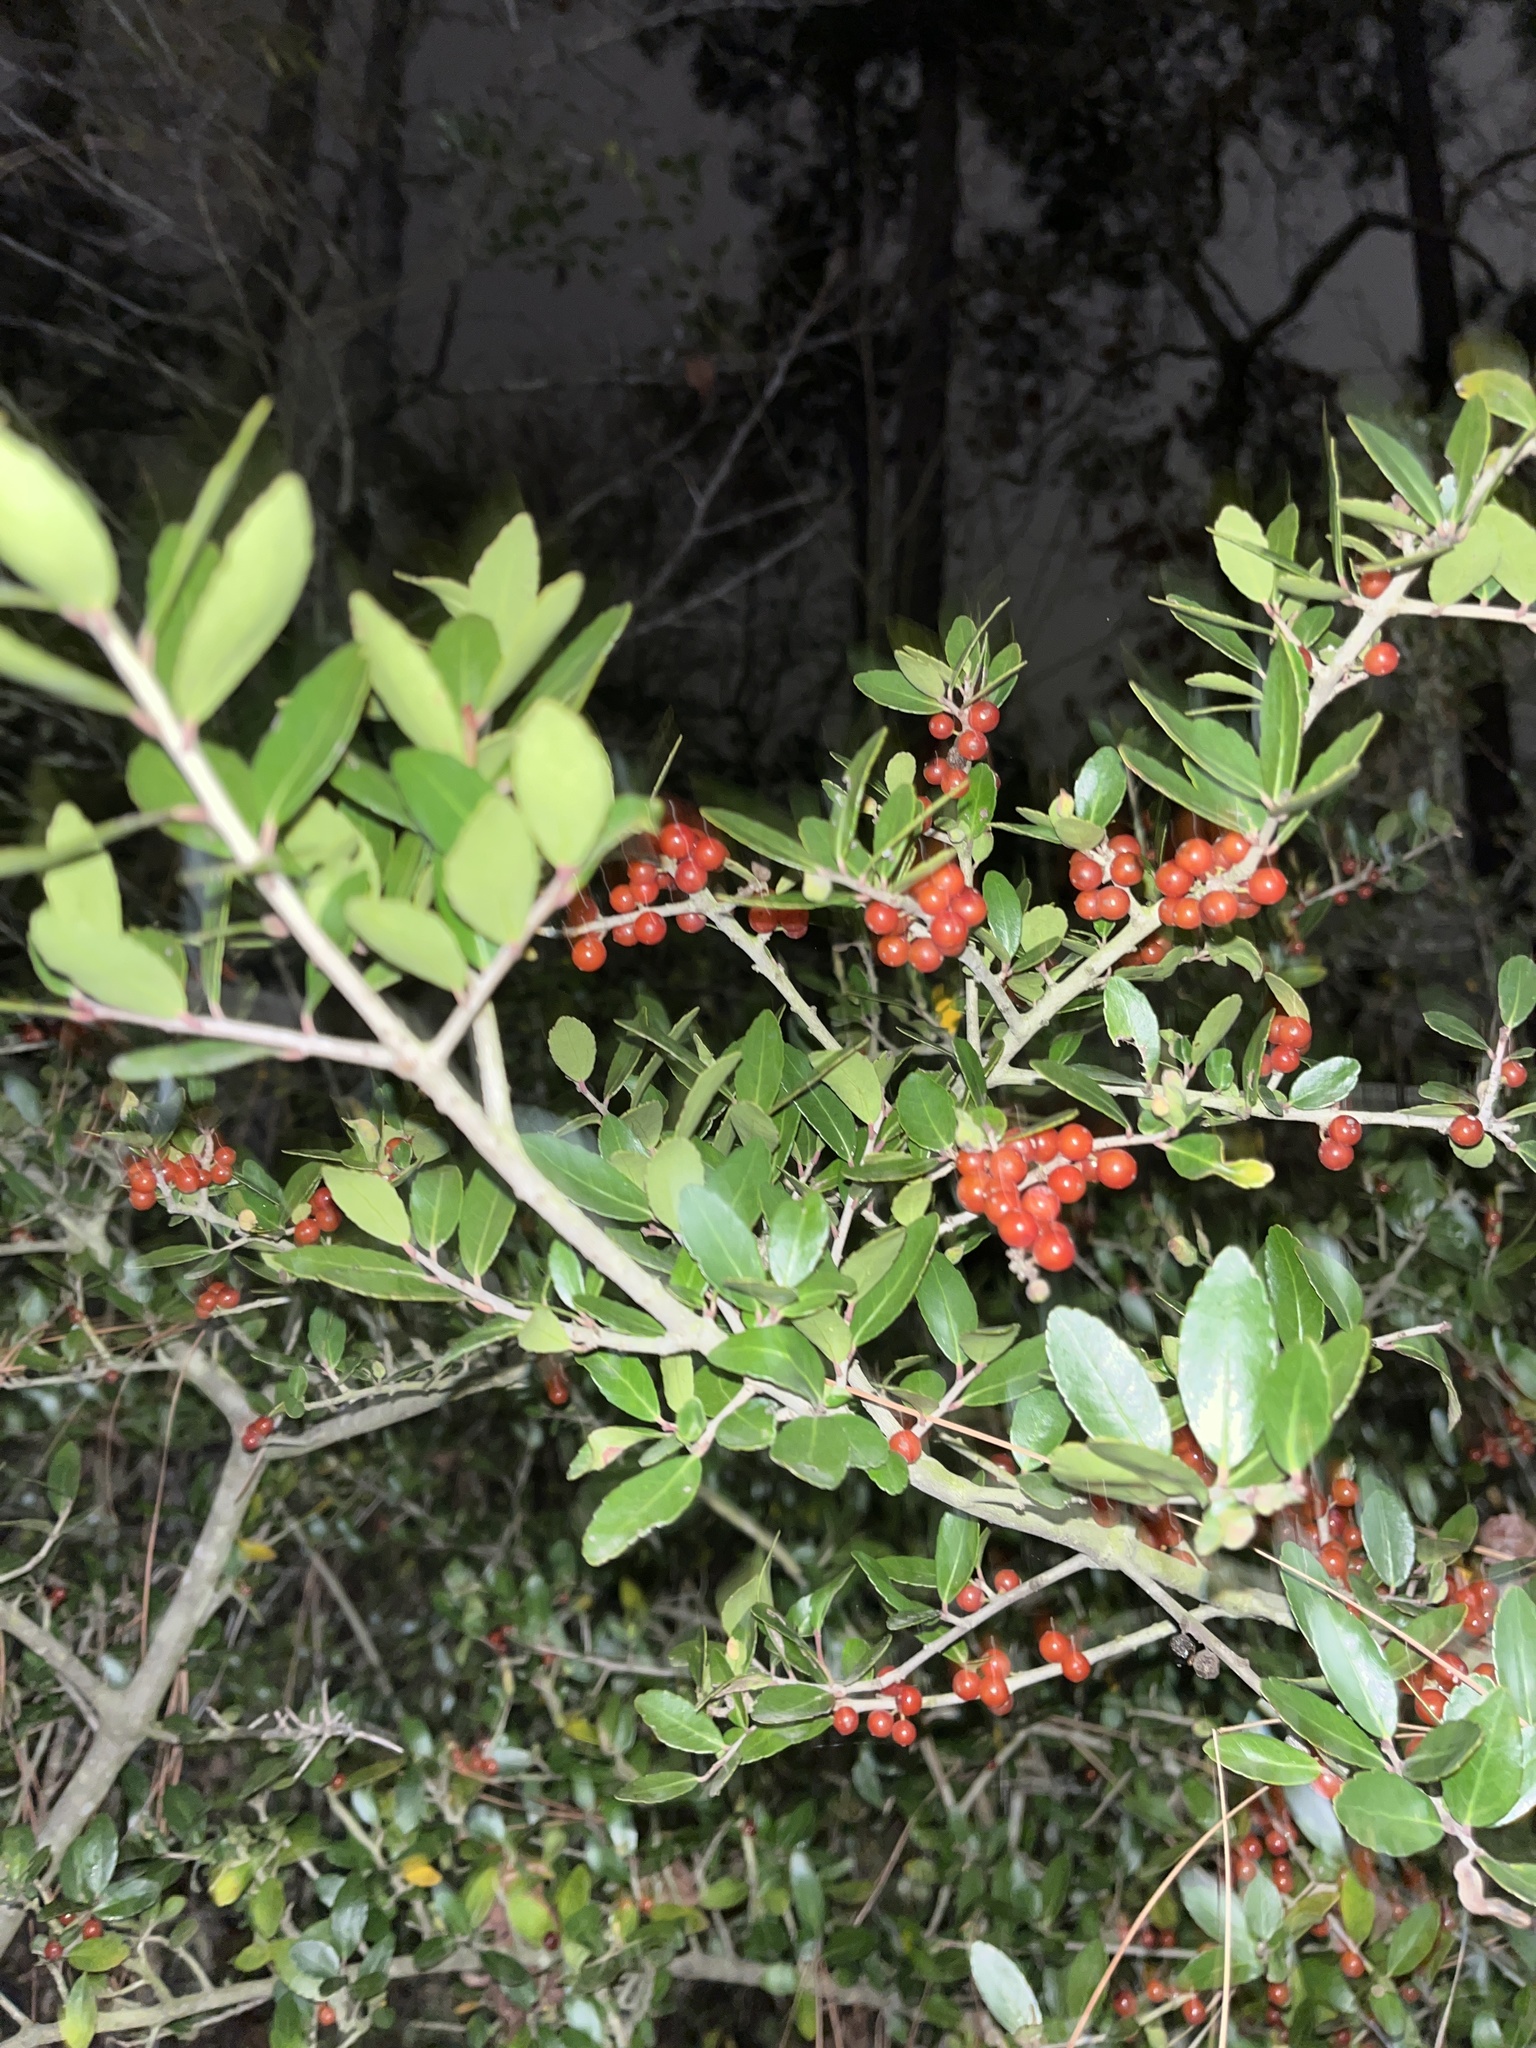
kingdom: Plantae
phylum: Tracheophyta
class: Magnoliopsida
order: Aquifoliales
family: Aquifoliaceae
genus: Ilex
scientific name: Ilex vomitoria
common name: Yaupon holly
